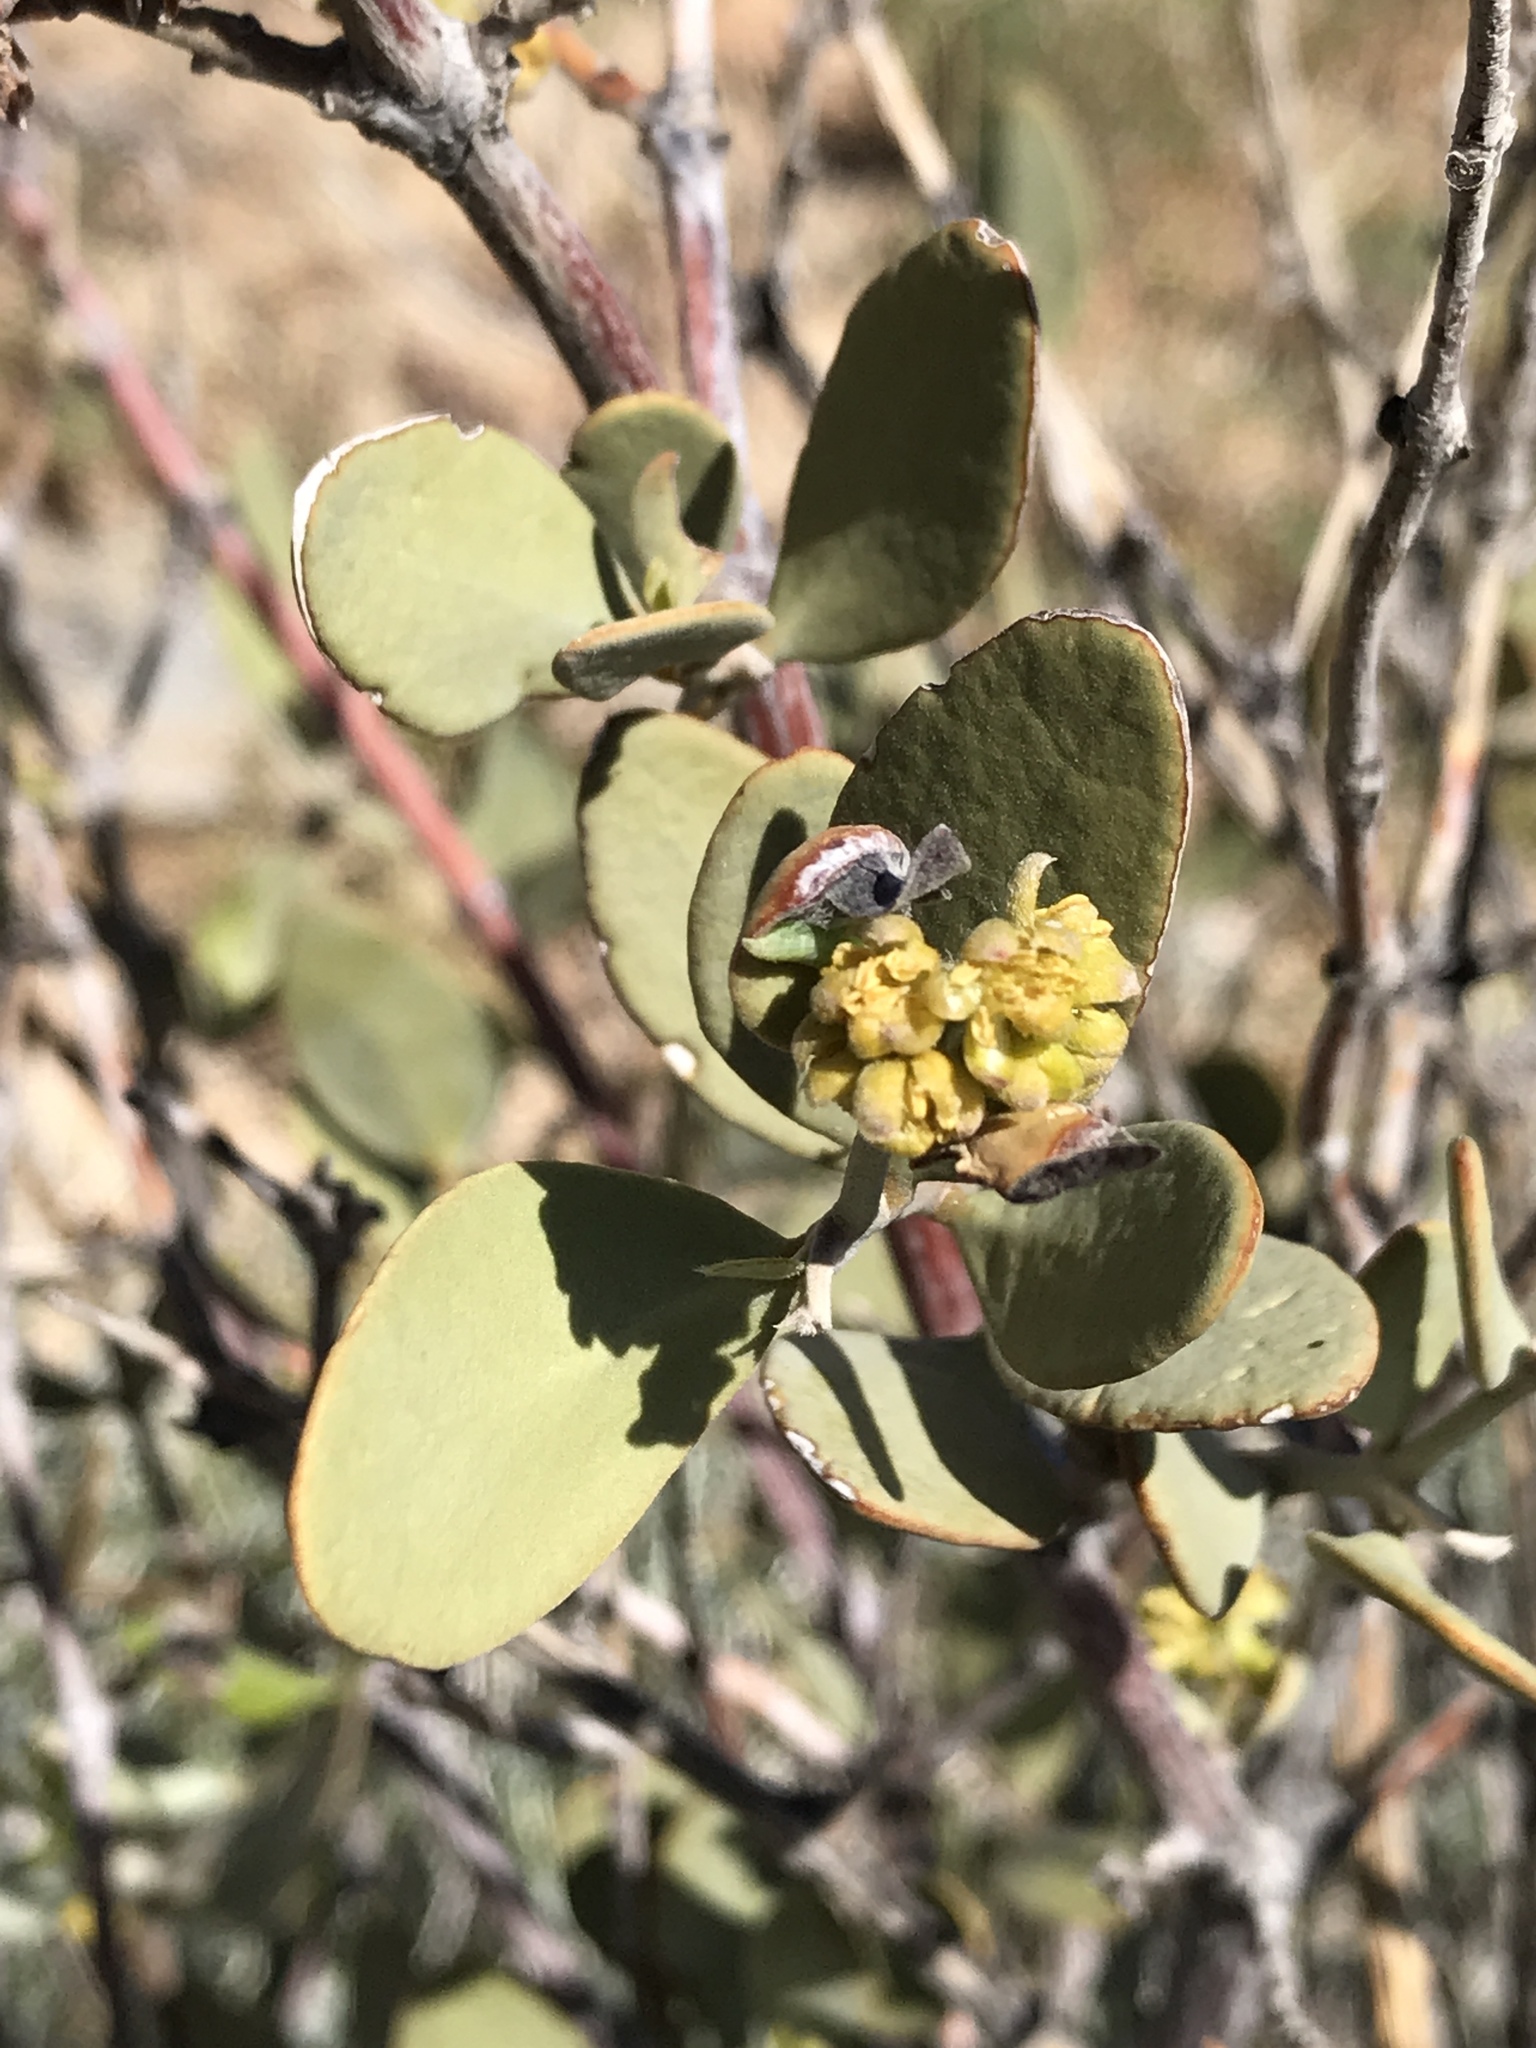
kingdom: Plantae
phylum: Tracheophyta
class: Magnoliopsida
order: Caryophyllales
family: Simmondsiaceae
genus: Simmondsia
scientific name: Simmondsia chinensis
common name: Jojoba
